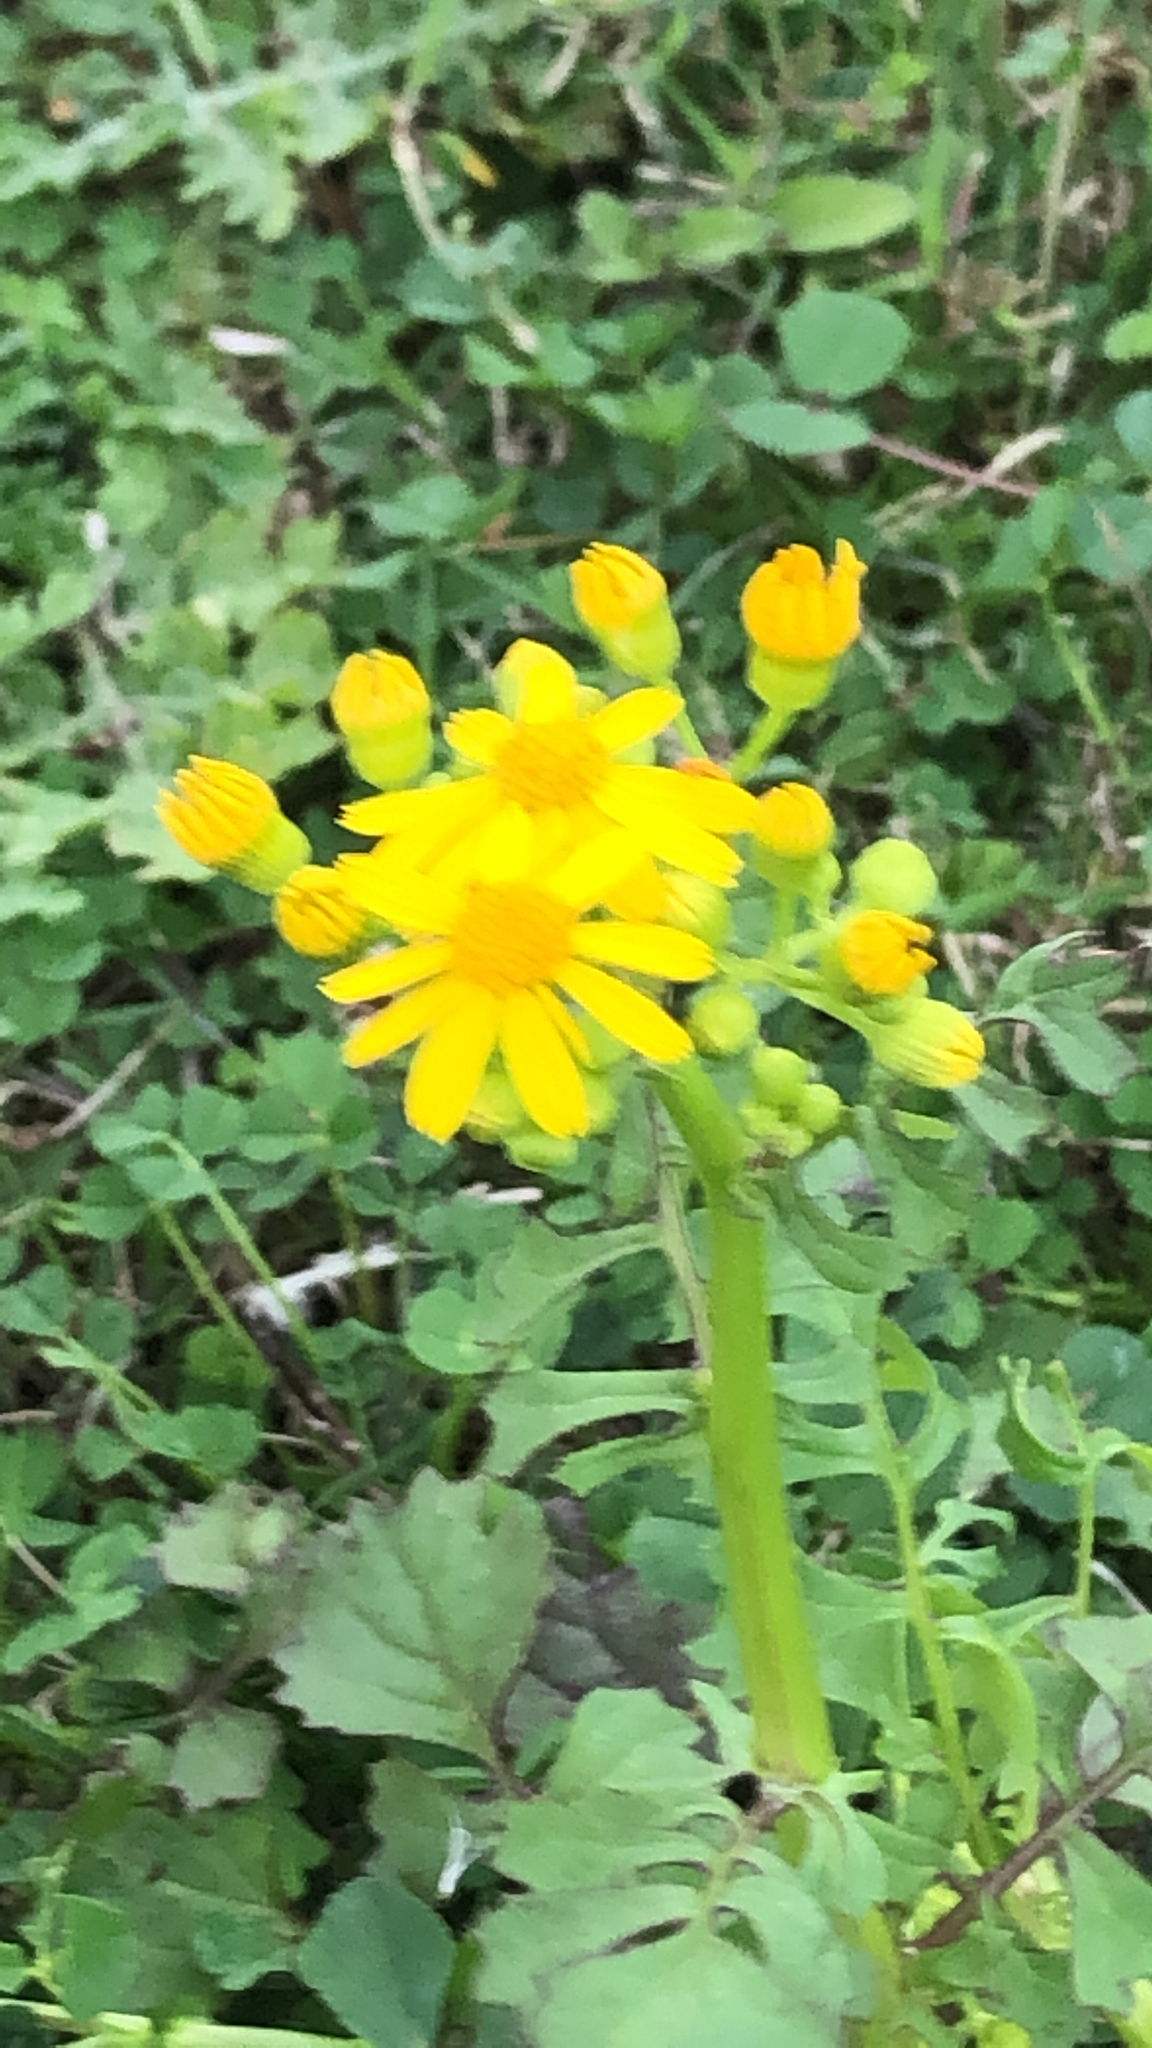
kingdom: Plantae
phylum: Tracheophyta
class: Magnoliopsida
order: Asterales
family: Asteraceae
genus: Packera
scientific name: Packera glabella
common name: Butterweed
